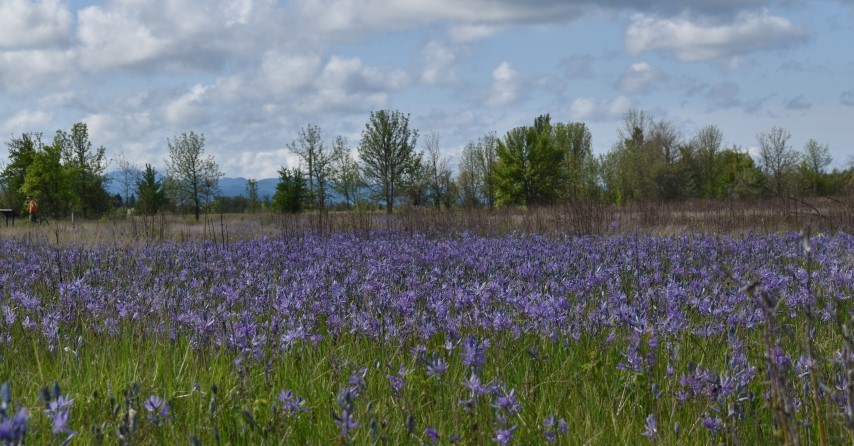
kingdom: Plantae
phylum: Tracheophyta
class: Liliopsida
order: Asparagales
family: Asparagaceae
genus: Camassia
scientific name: Camassia quamash
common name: Common camas
